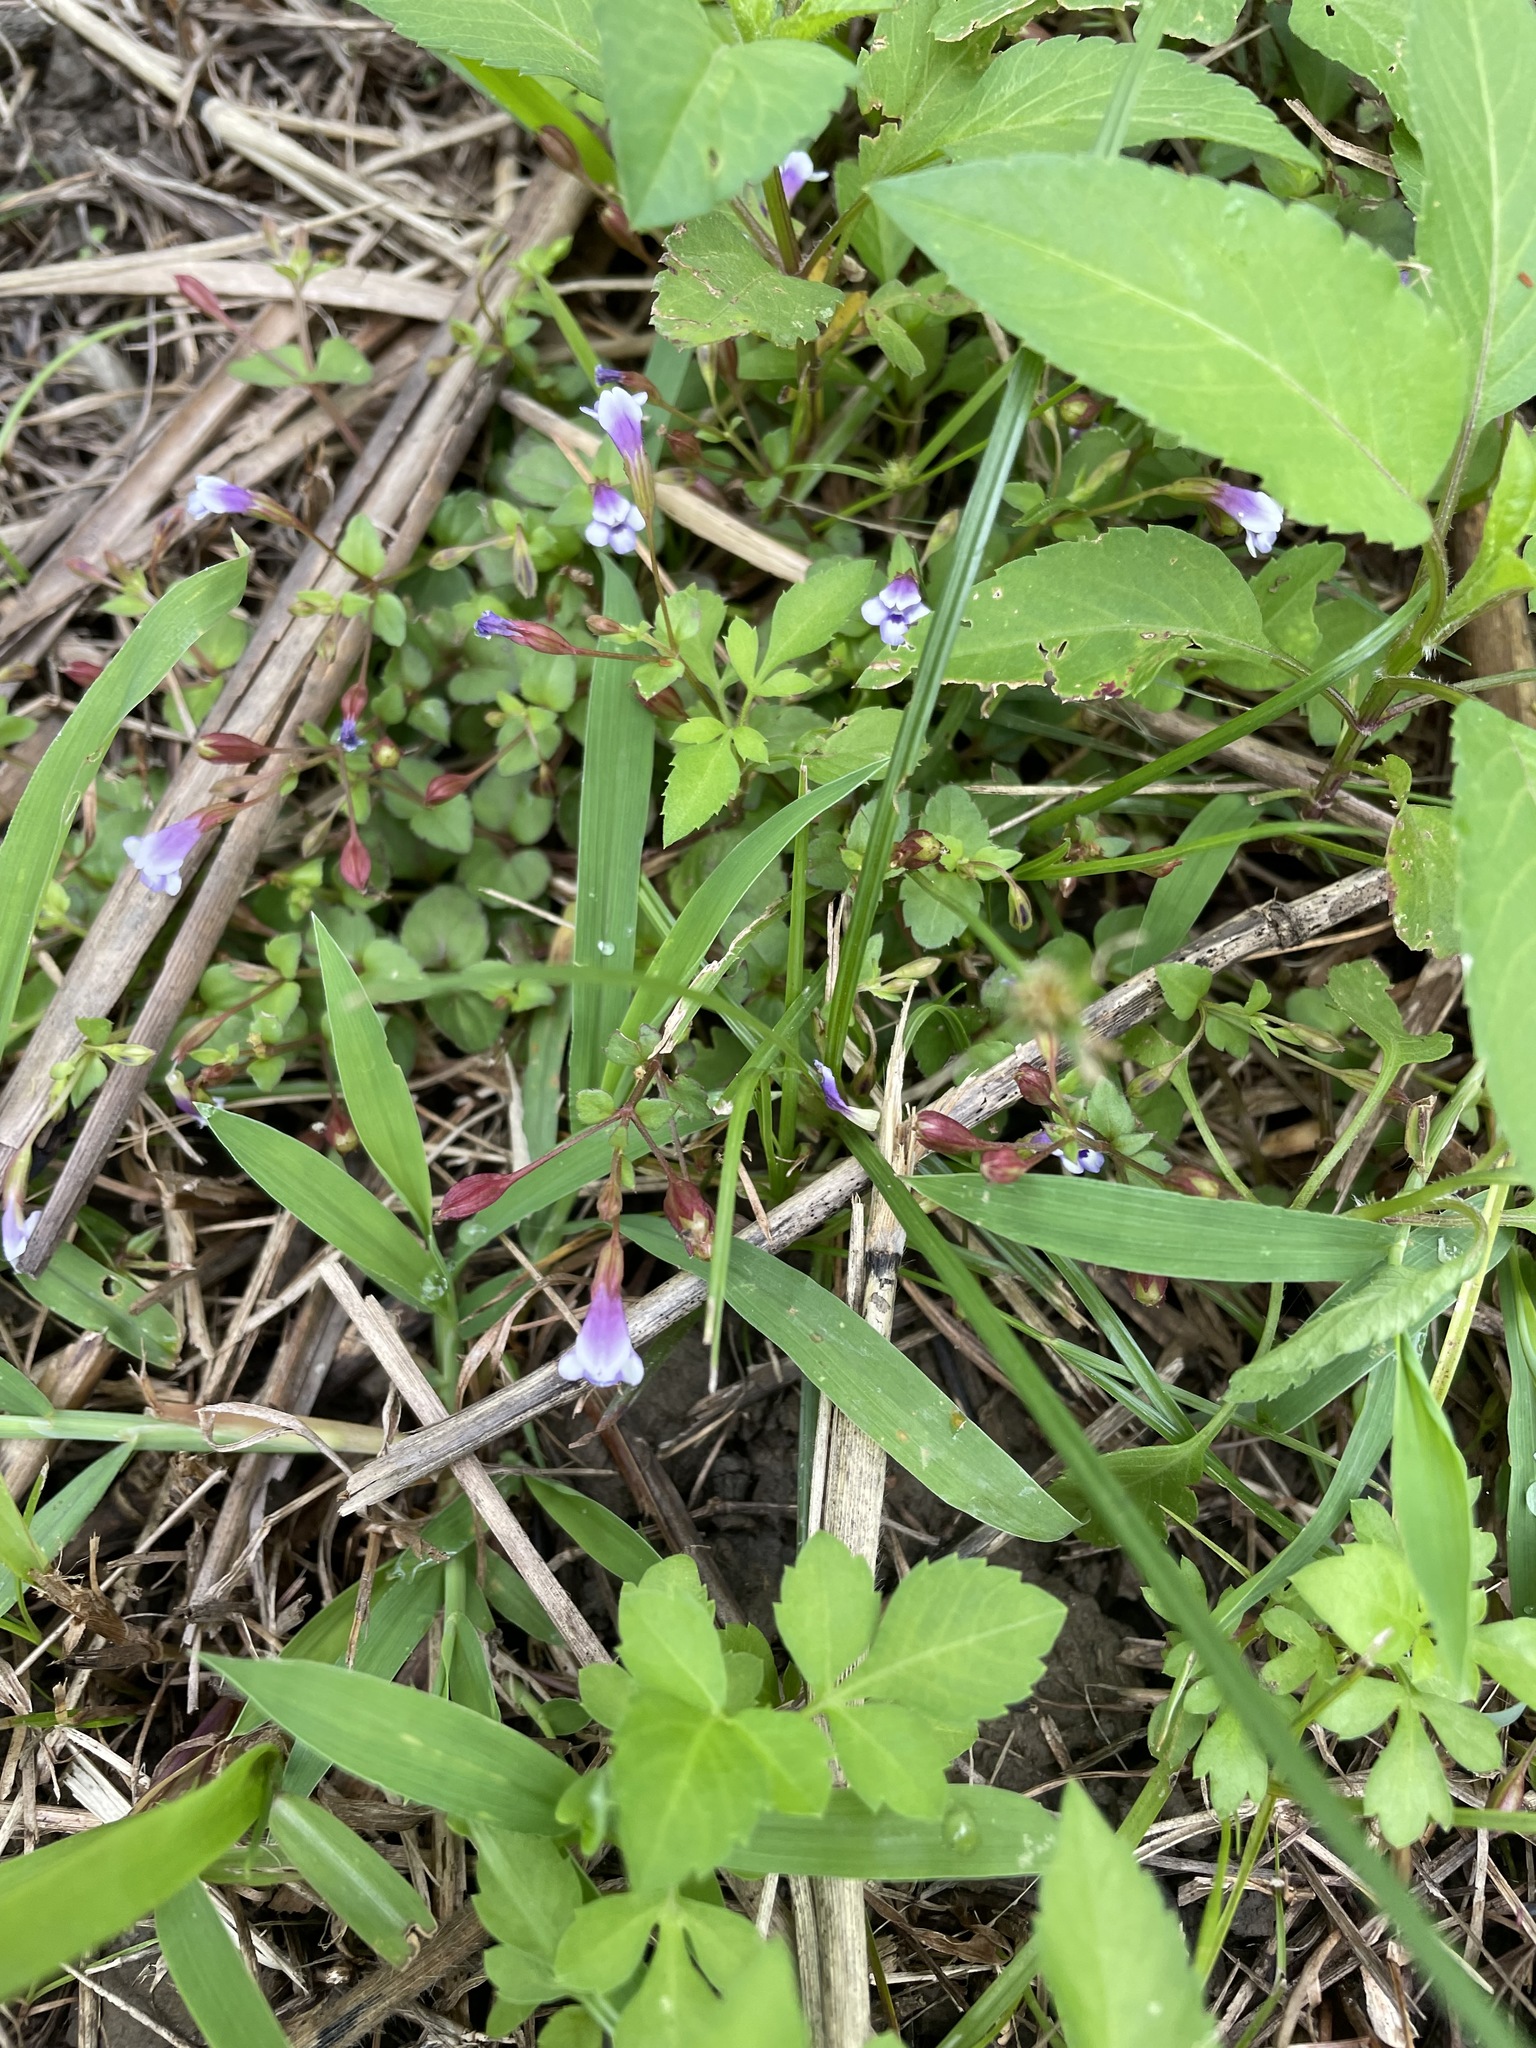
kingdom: Plantae
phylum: Tracheophyta
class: Magnoliopsida
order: Lamiales
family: Linderniaceae
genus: Torenia
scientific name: Torenia crustacea
